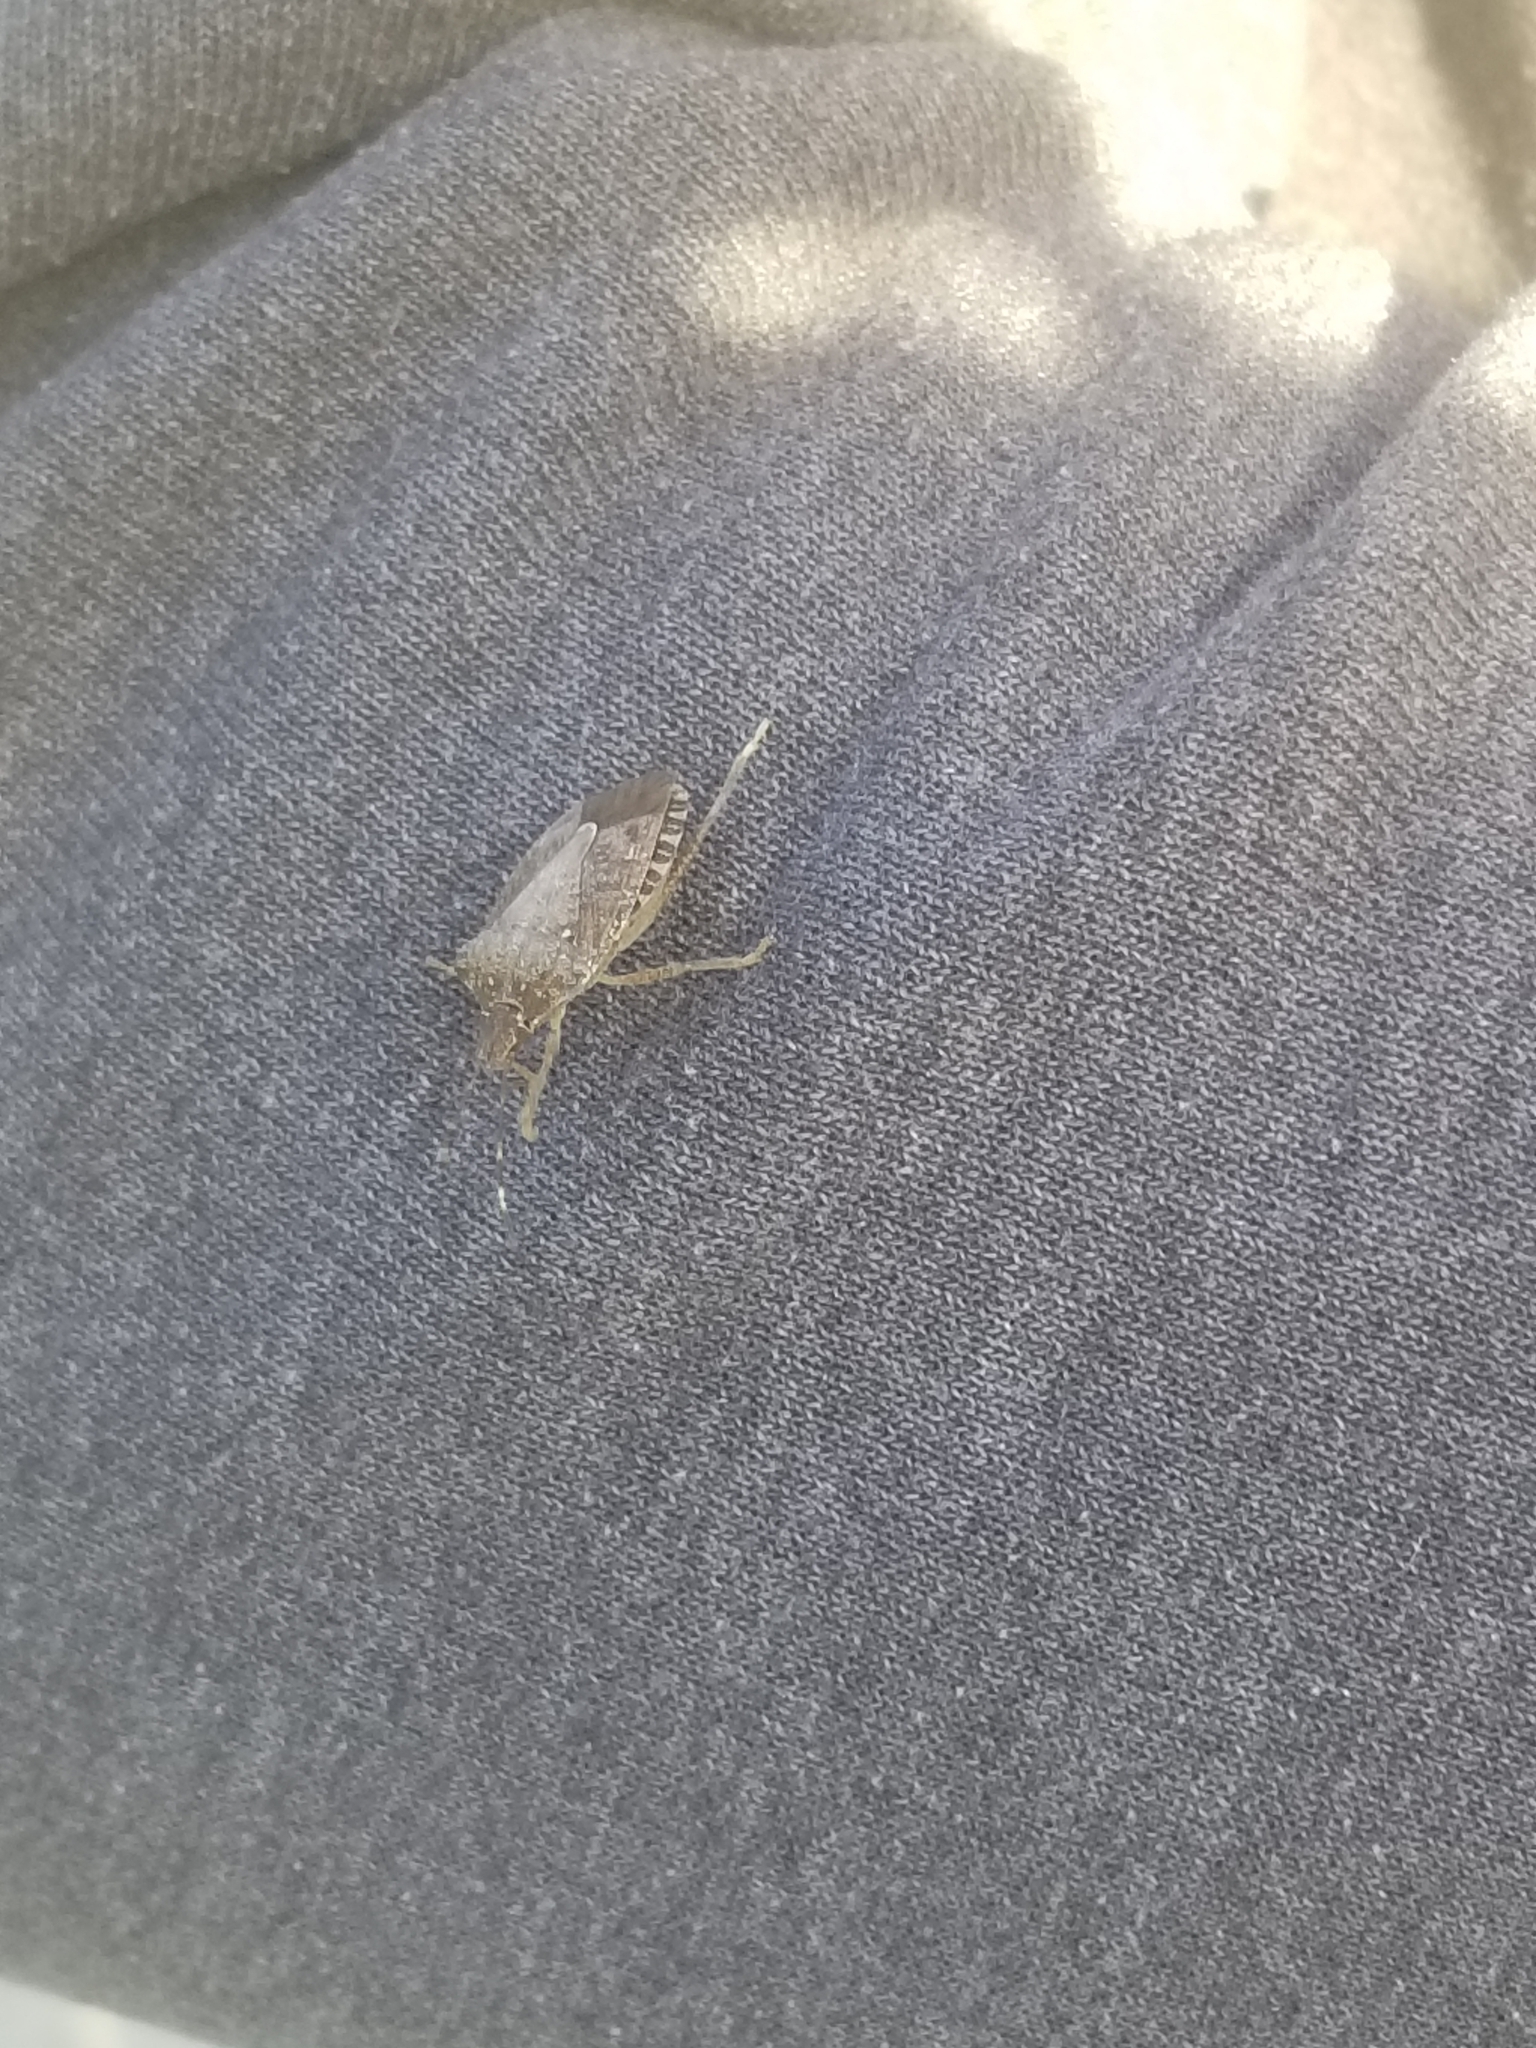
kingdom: Animalia
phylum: Arthropoda
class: Insecta
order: Hemiptera
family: Pentatomidae
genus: Halyomorpha
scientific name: Halyomorpha halys
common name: Brown marmorated stink bug
